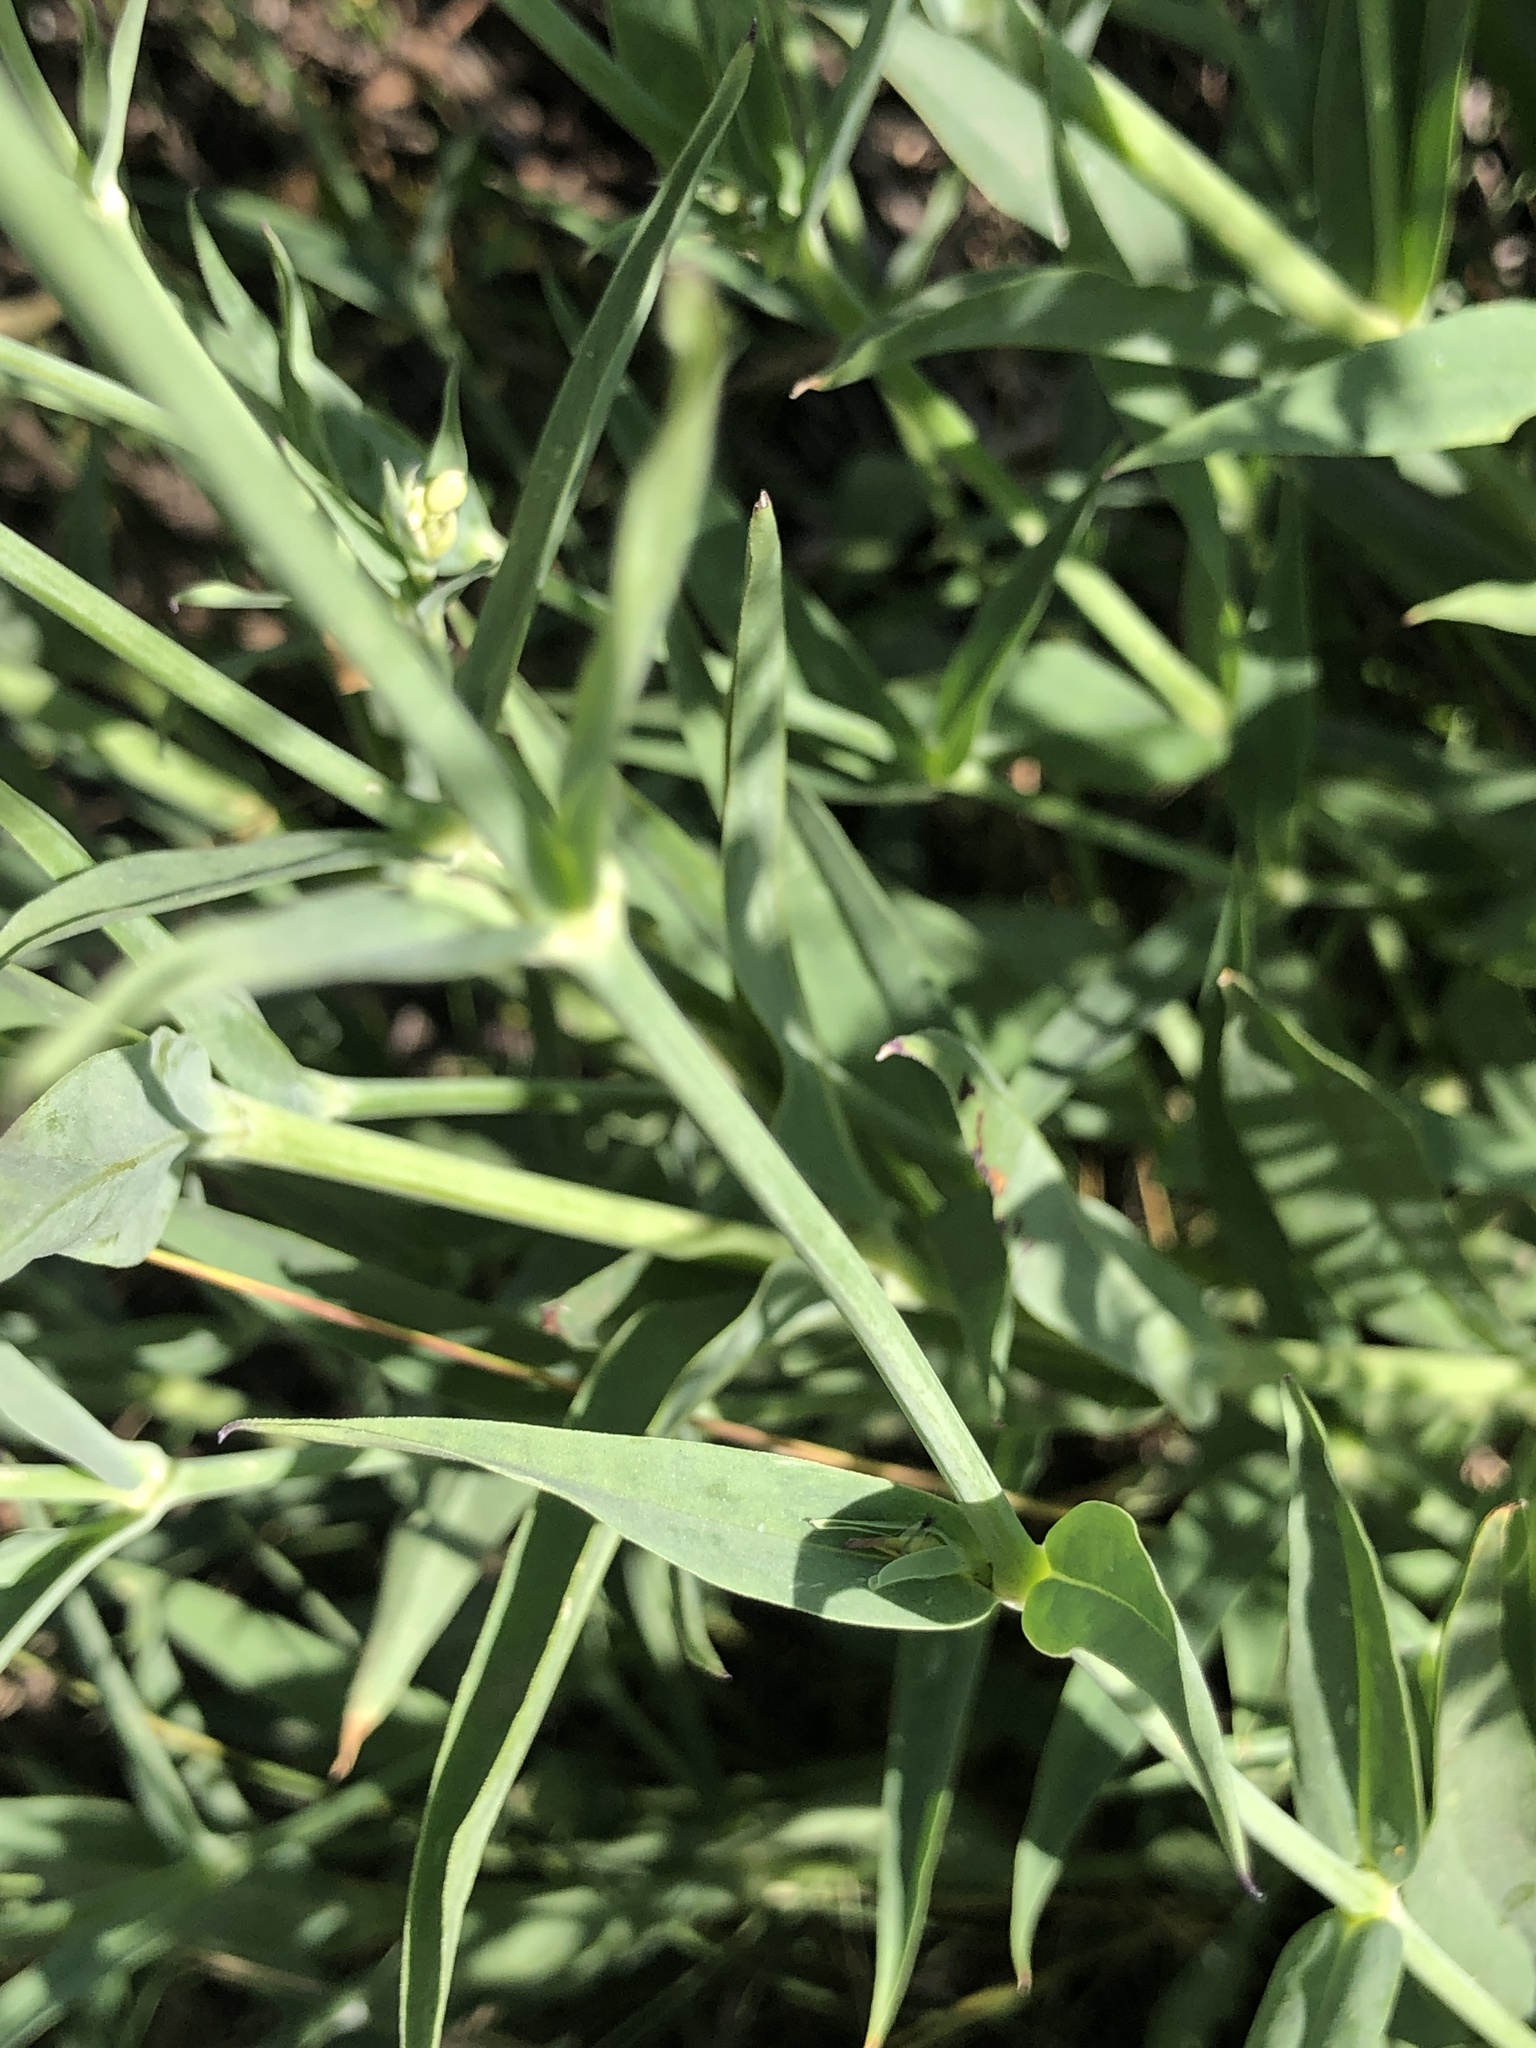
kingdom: Plantae
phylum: Tracheophyta
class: Magnoliopsida
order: Caryophyllales
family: Caryophyllaceae
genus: Silene
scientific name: Silene vulgaris
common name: Bladder campion
